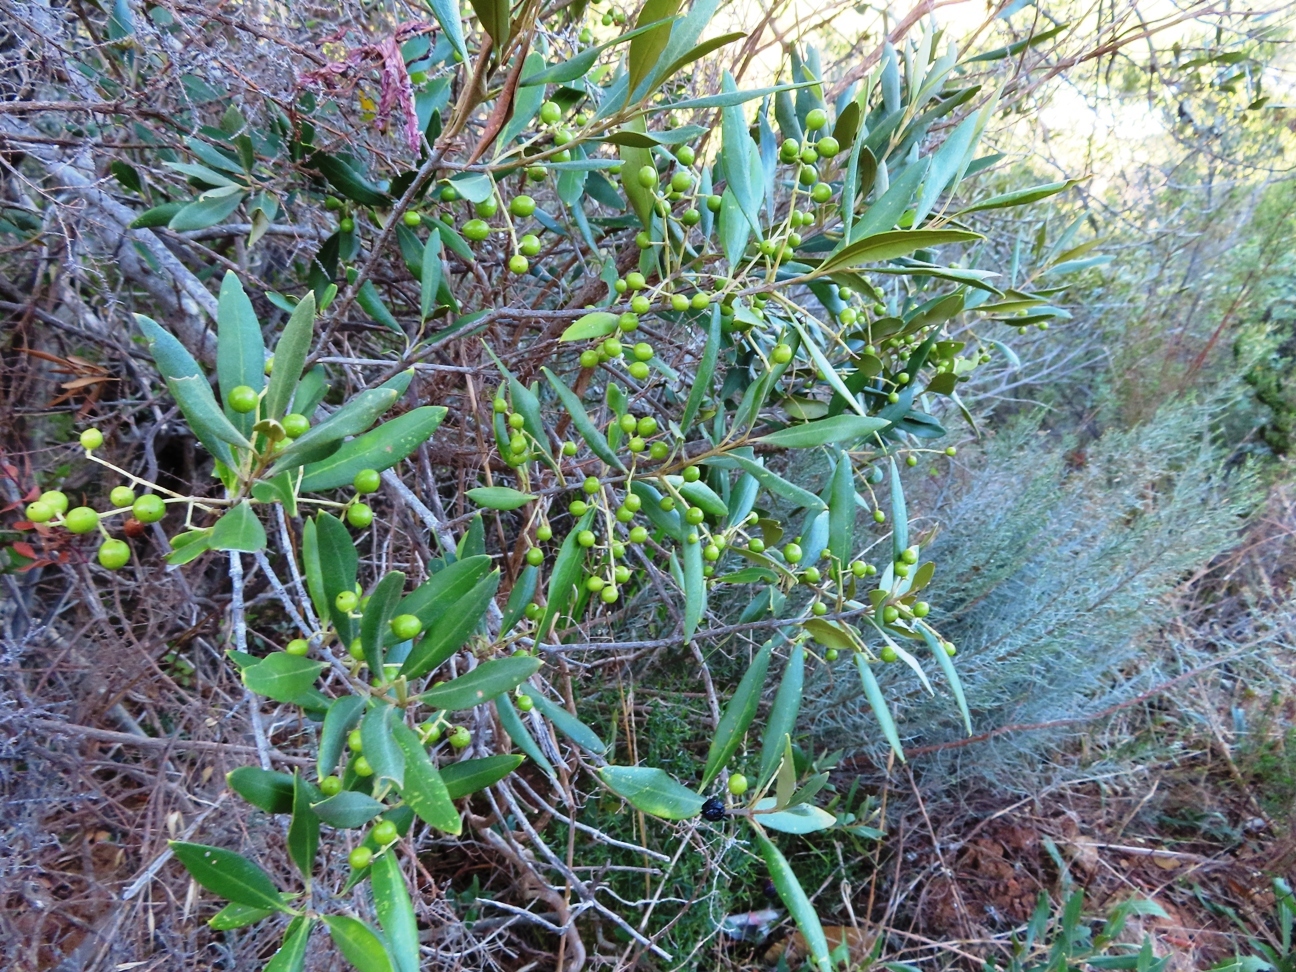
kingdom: Plantae
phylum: Tracheophyta
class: Magnoliopsida
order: Lamiales
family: Oleaceae
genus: Olea
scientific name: Olea europaea
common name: Olive
